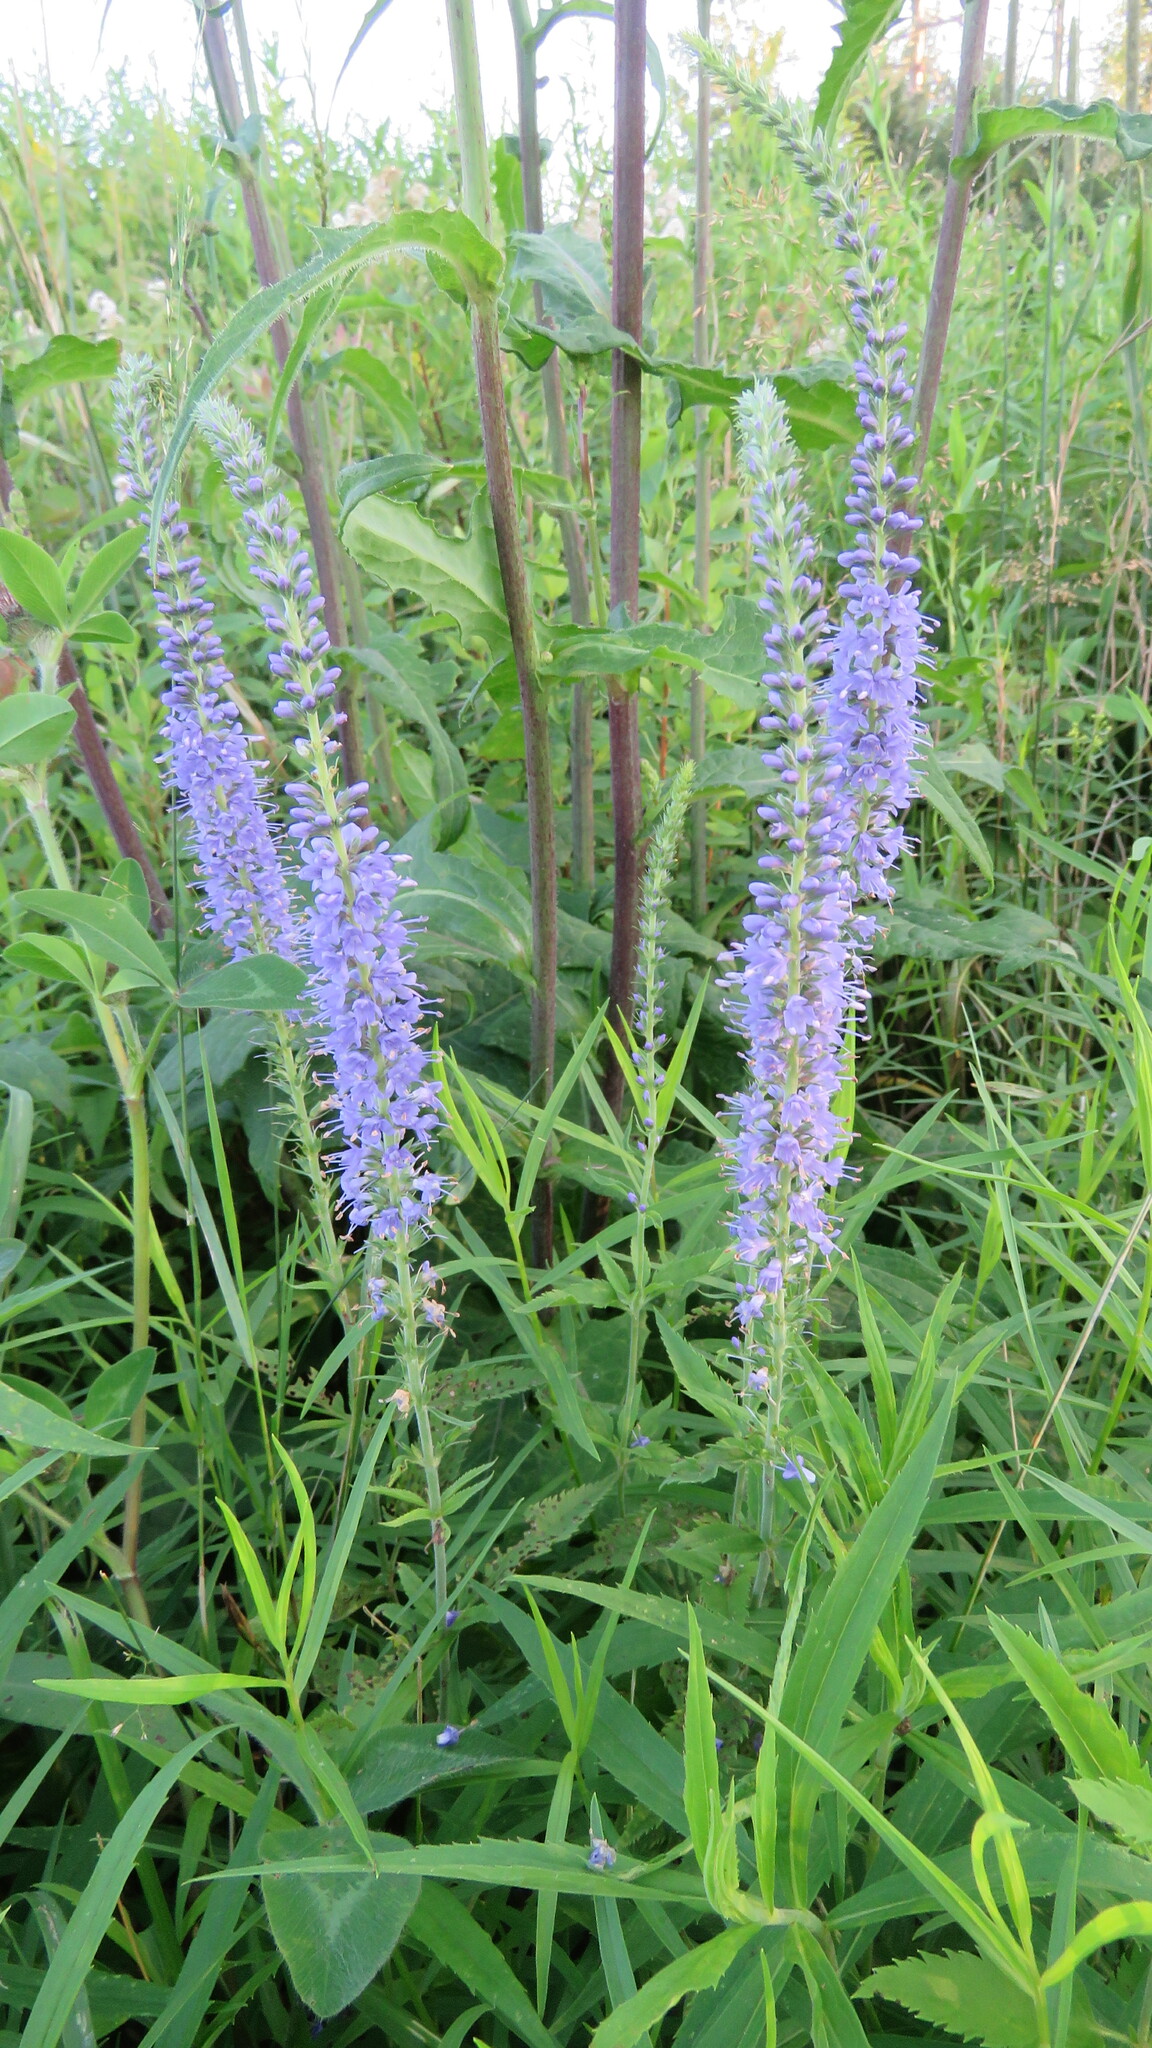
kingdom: Plantae
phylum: Tracheophyta
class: Magnoliopsida
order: Lamiales
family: Plantaginaceae
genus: Veronica
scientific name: Veronica longifolia
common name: Garden speedwell
